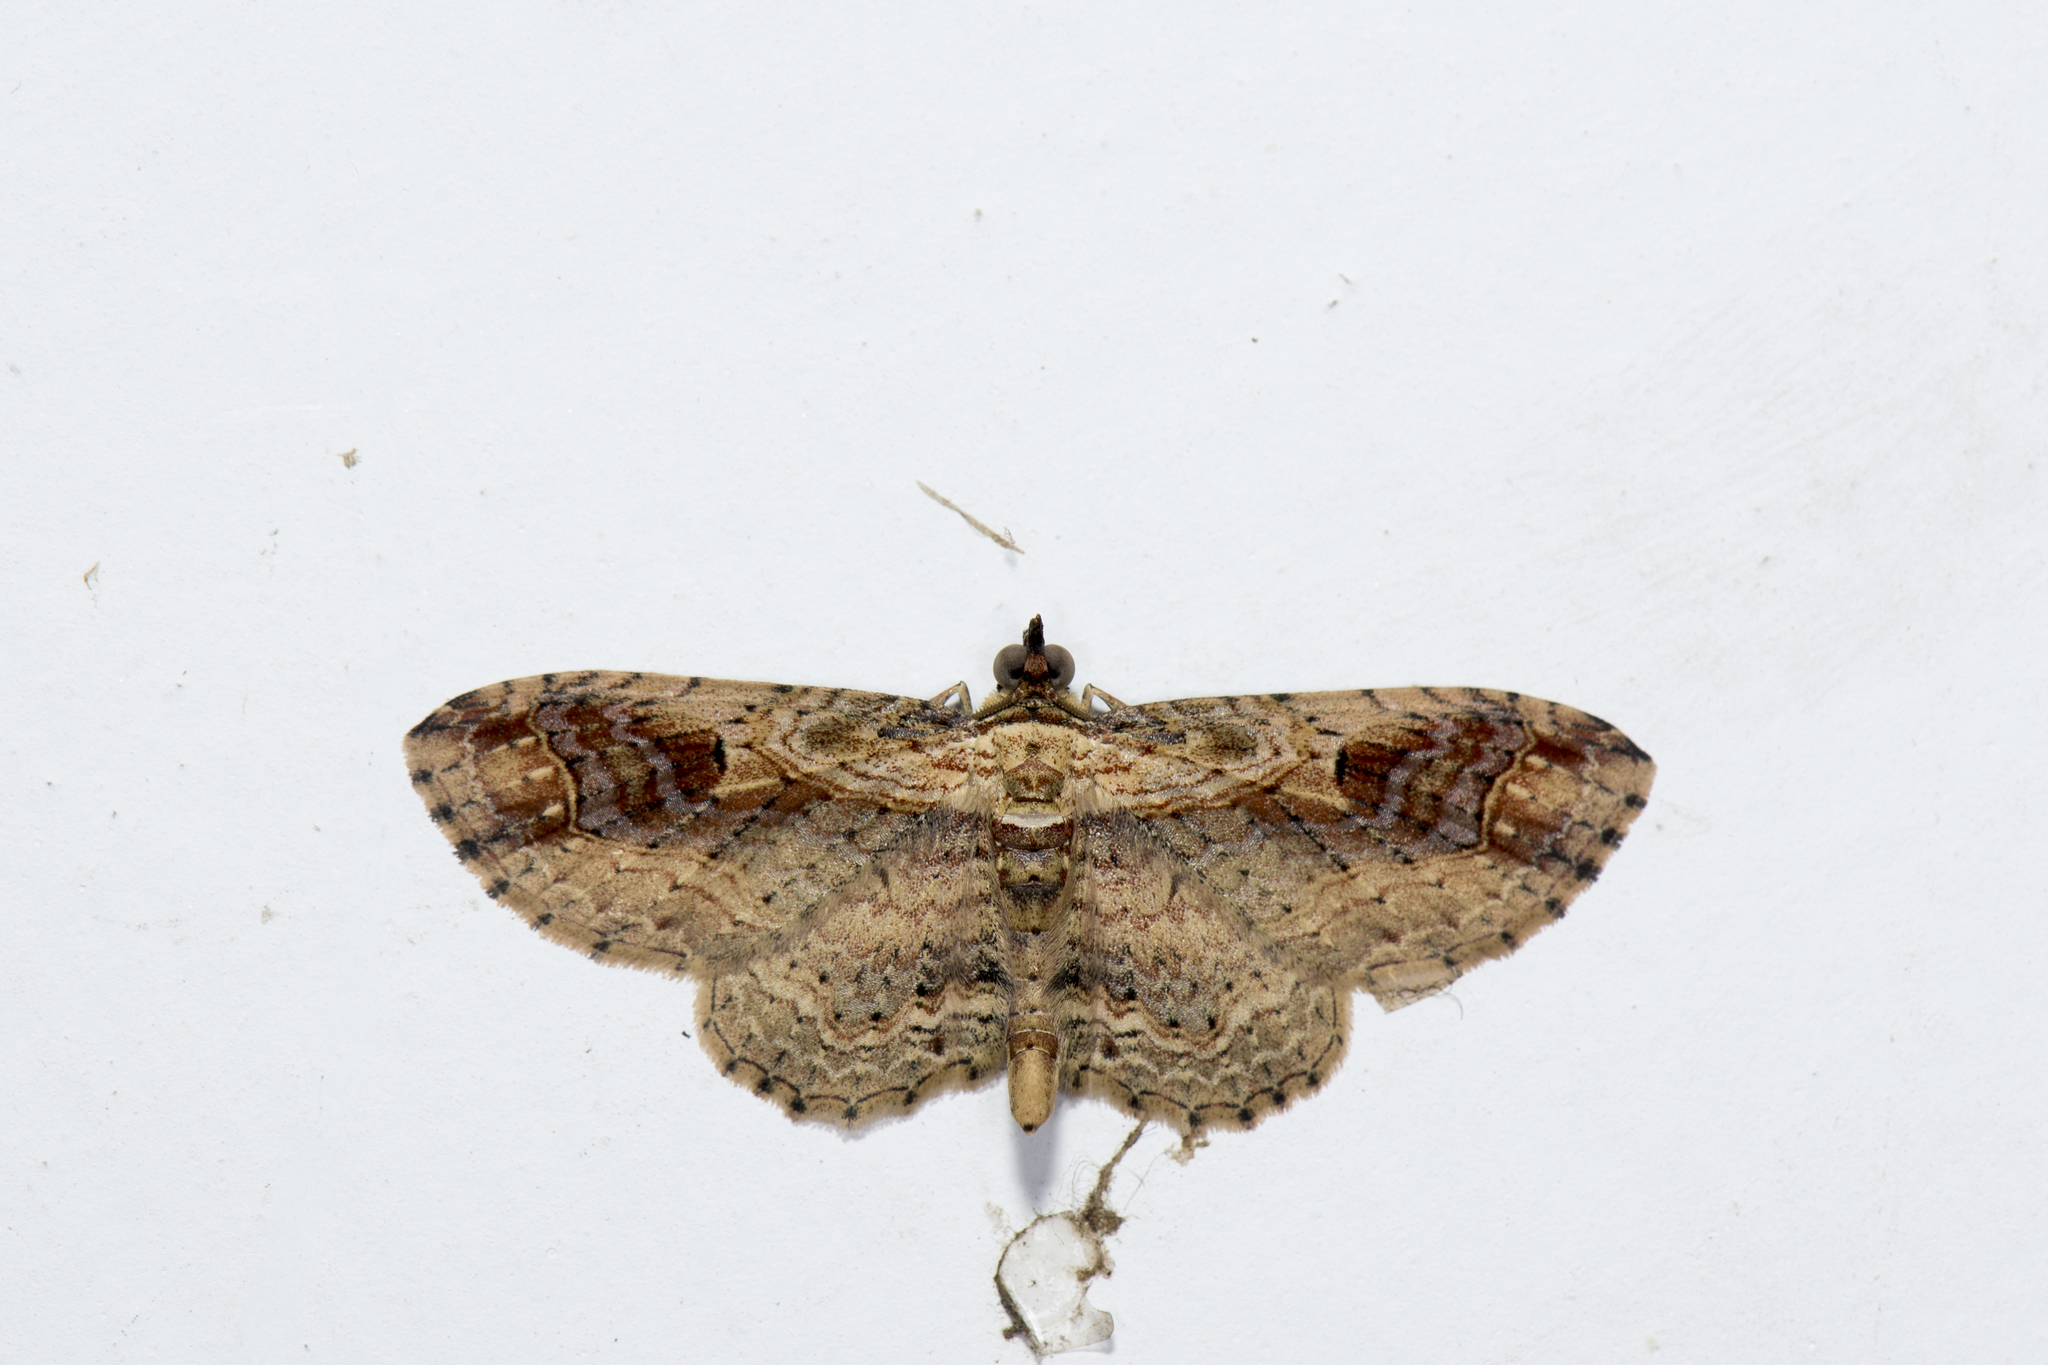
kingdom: Animalia
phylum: Arthropoda
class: Insecta
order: Lepidoptera
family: Geometridae
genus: Ziridava
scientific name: Ziridava kanshireiensis
